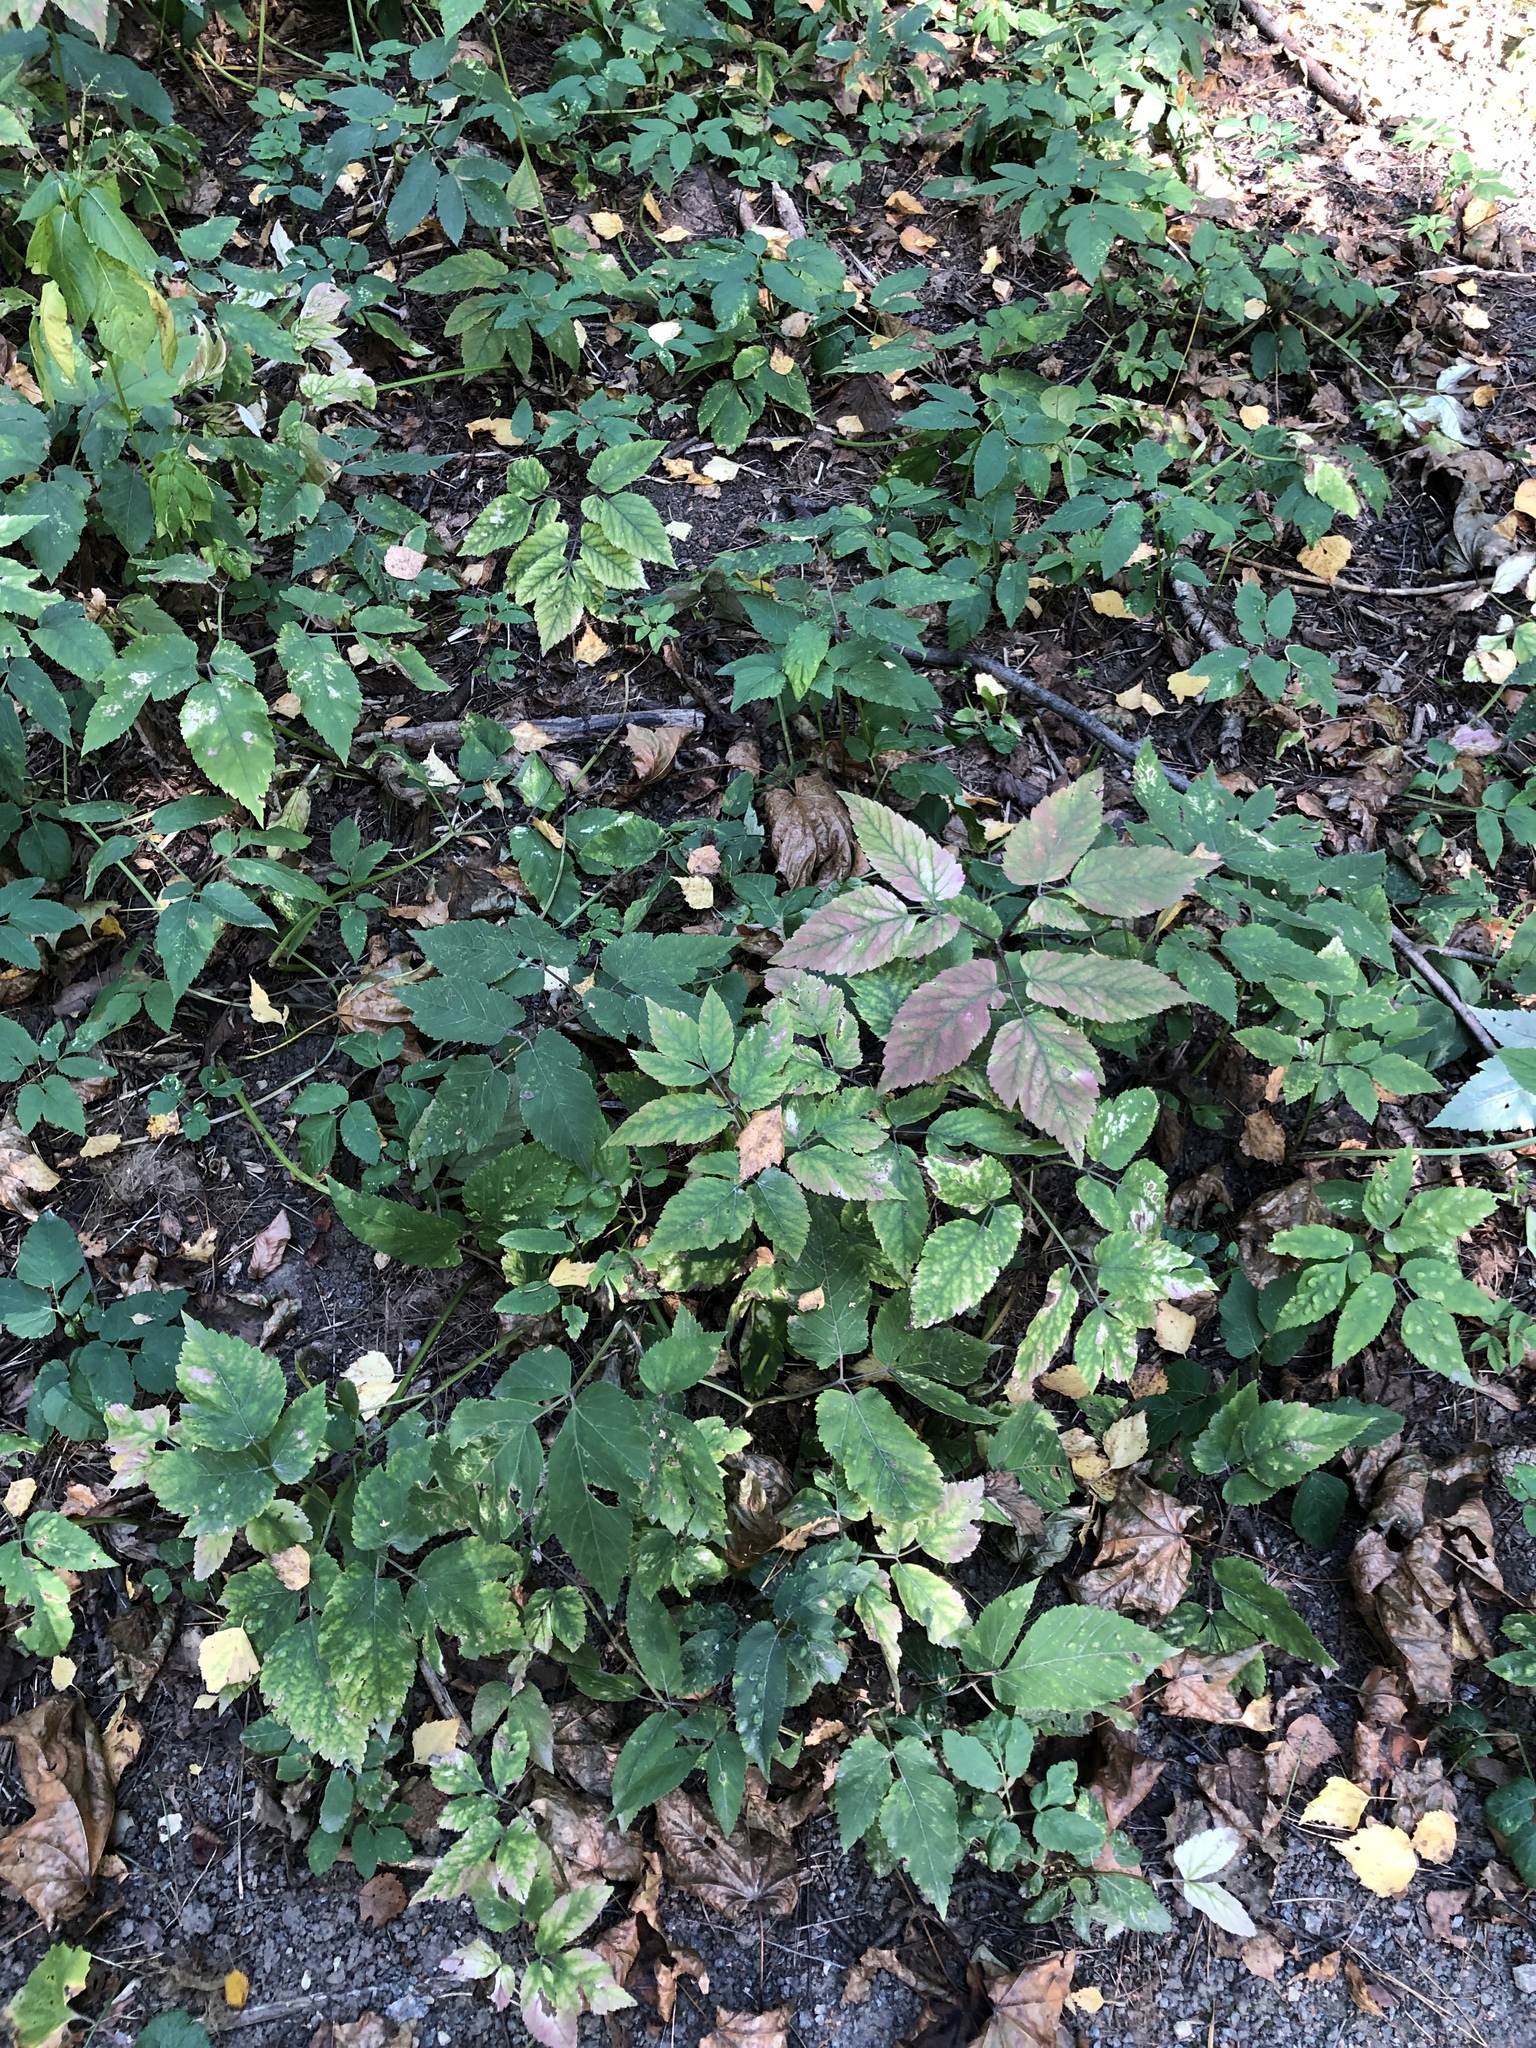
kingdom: Plantae
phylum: Tracheophyta
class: Magnoliopsida
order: Apiales
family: Apiaceae
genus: Aegopodium
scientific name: Aegopodium podagraria
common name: Ground-elder
